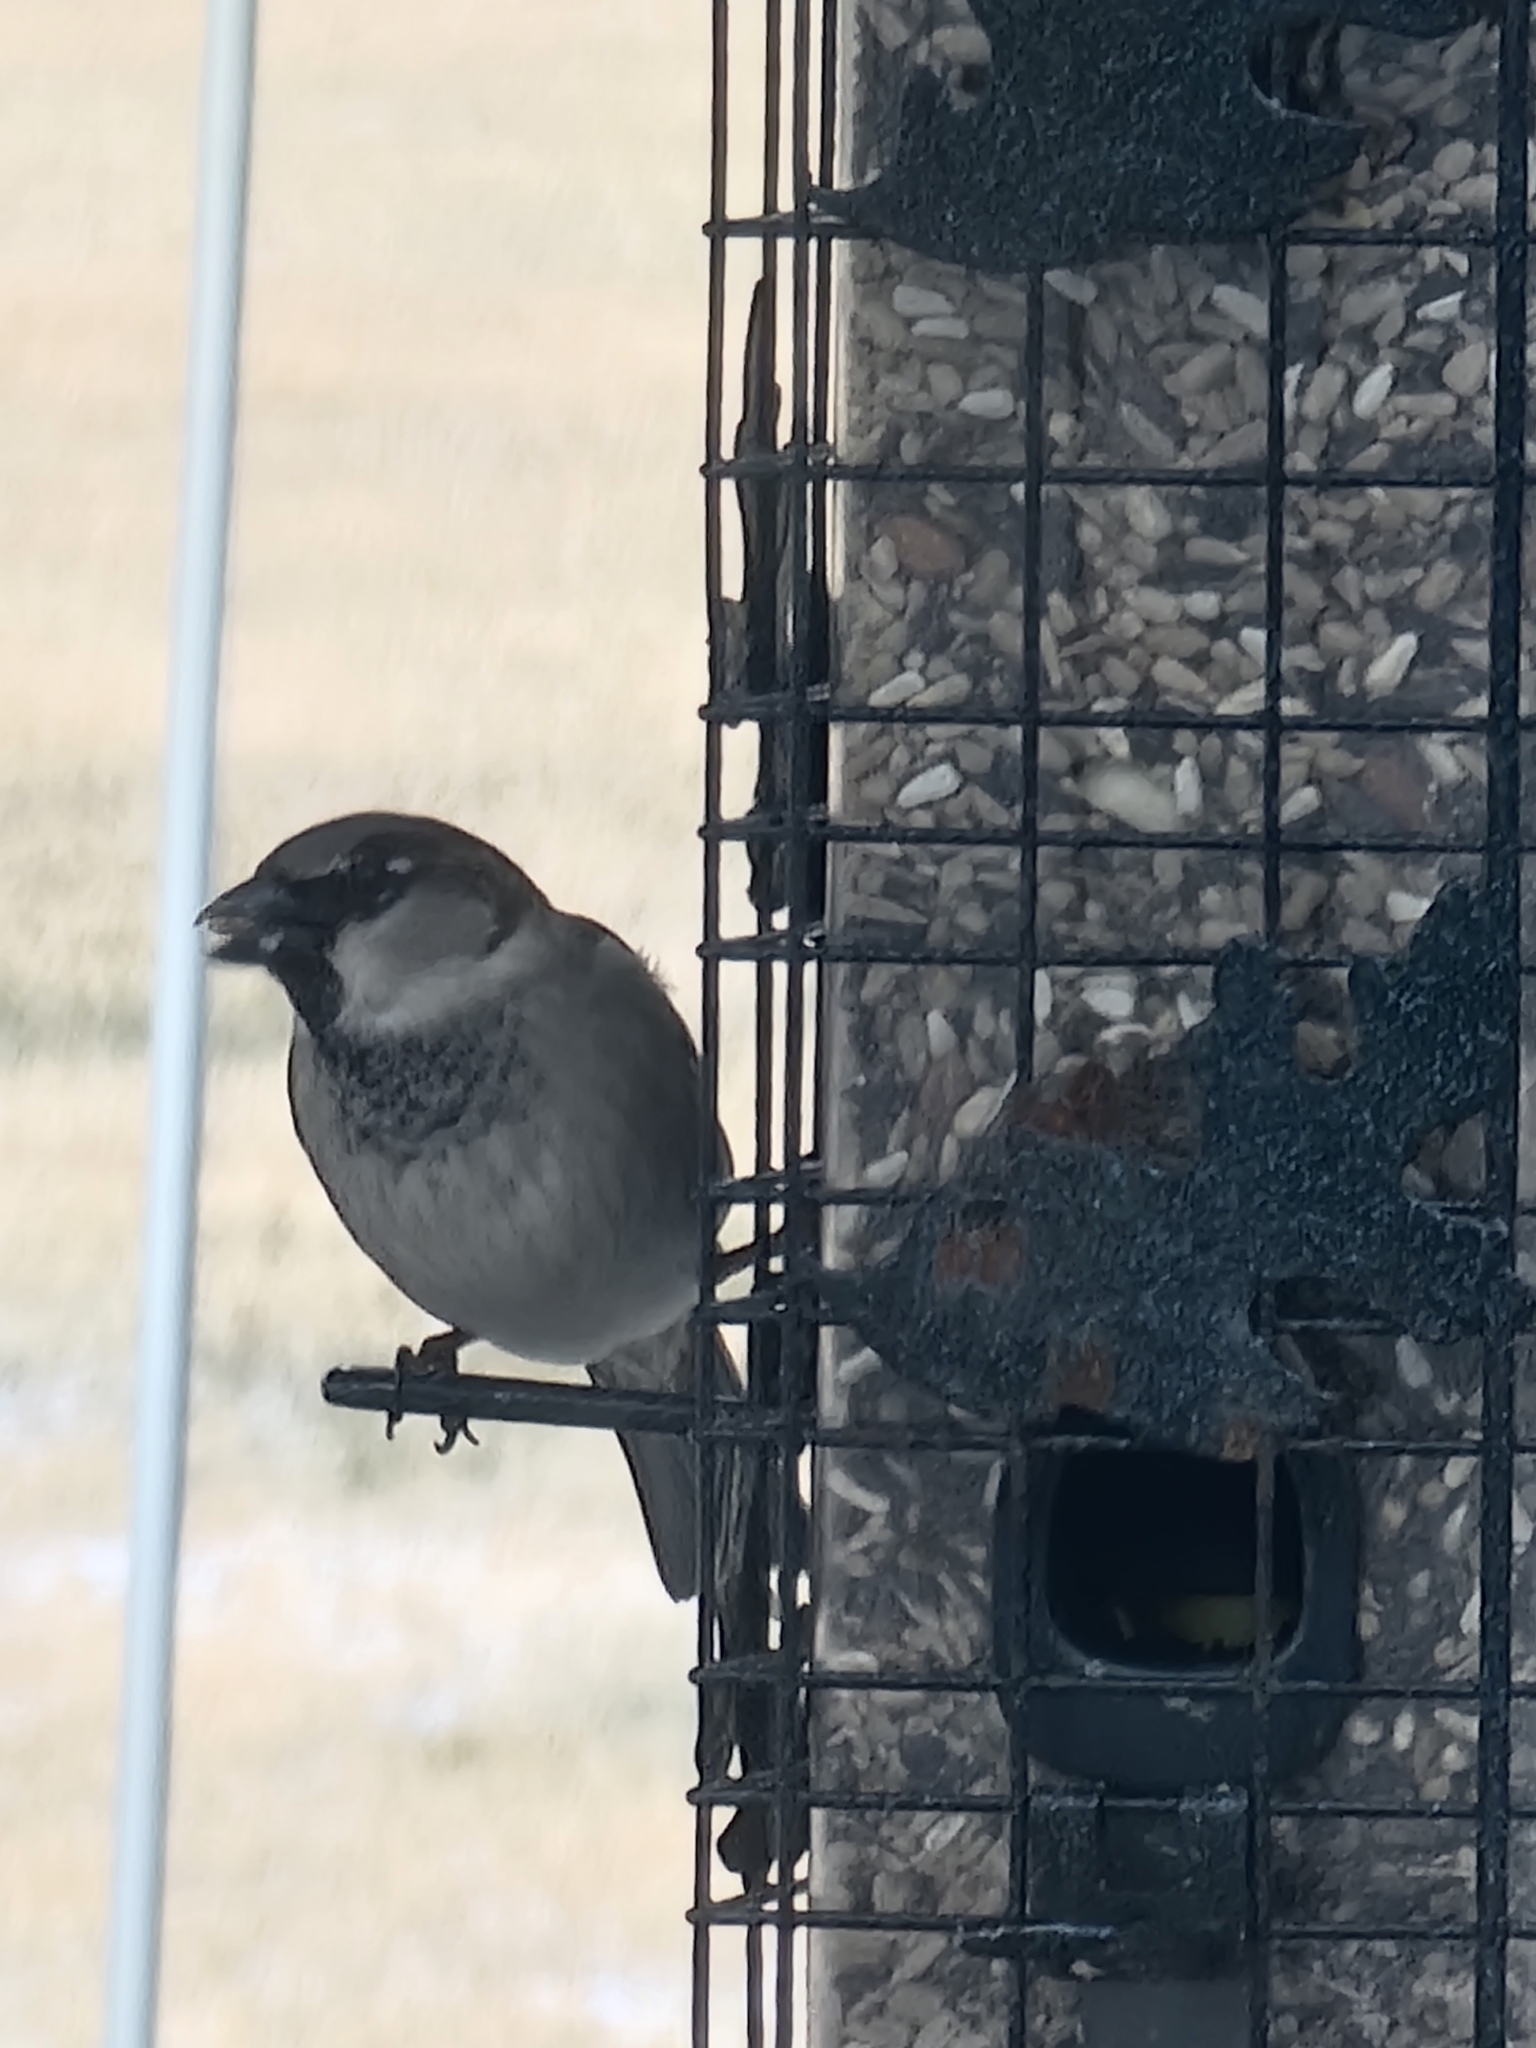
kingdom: Animalia
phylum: Chordata
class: Aves
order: Passeriformes
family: Passeridae
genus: Passer
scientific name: Passer domesticus
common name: House sparrow
